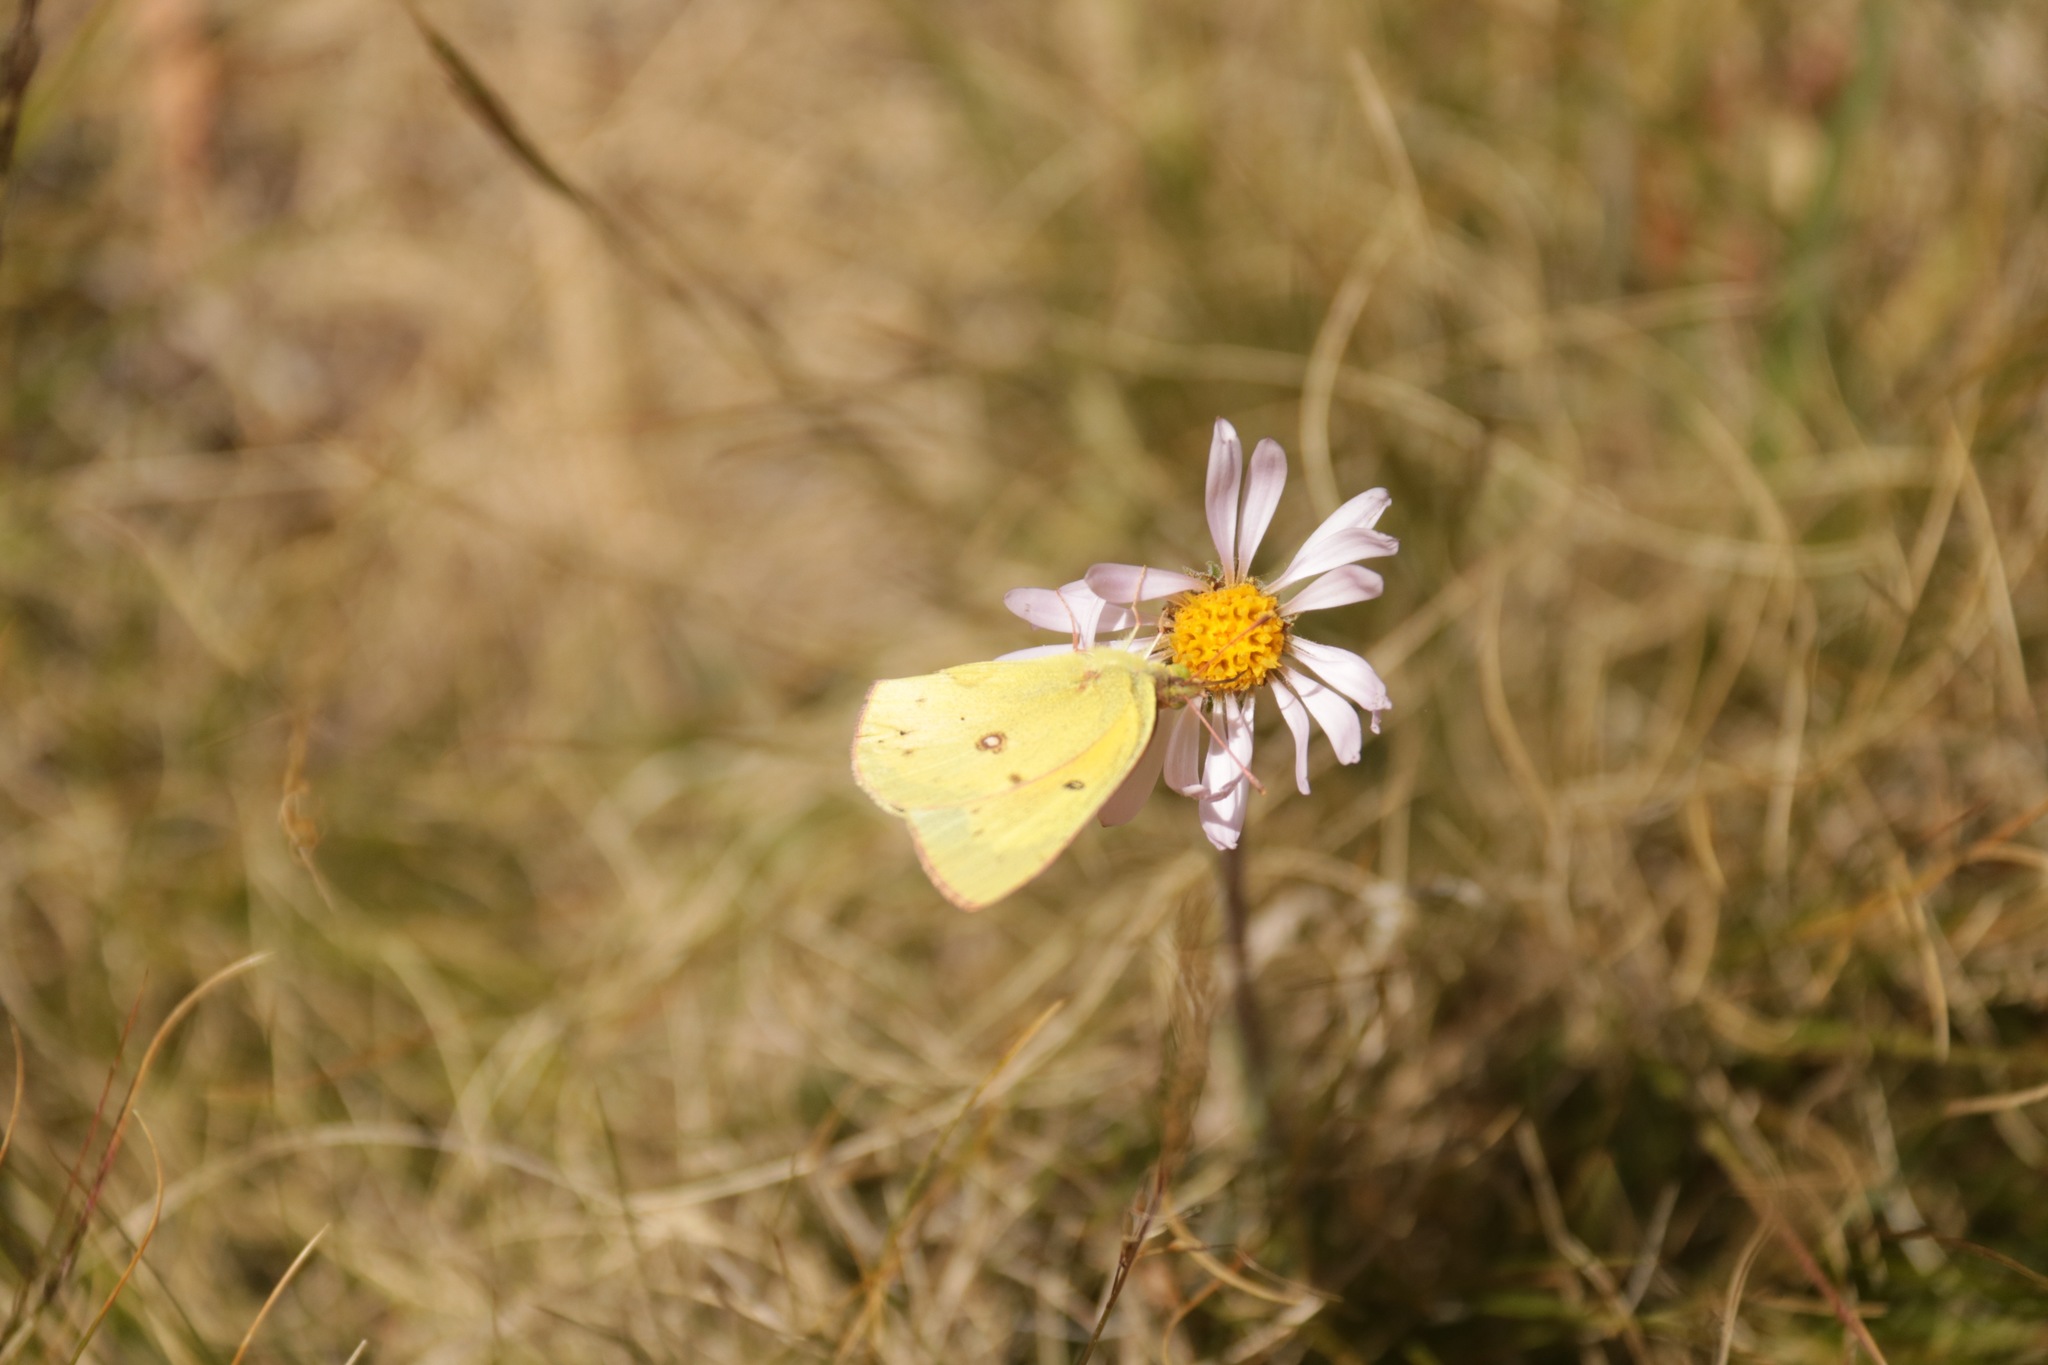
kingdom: Animalia
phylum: Arthropoda
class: Insecta
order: Lepidoptera
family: Pieridae
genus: Colias
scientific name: Colias eurytheme
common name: Alfalfa butterfly
